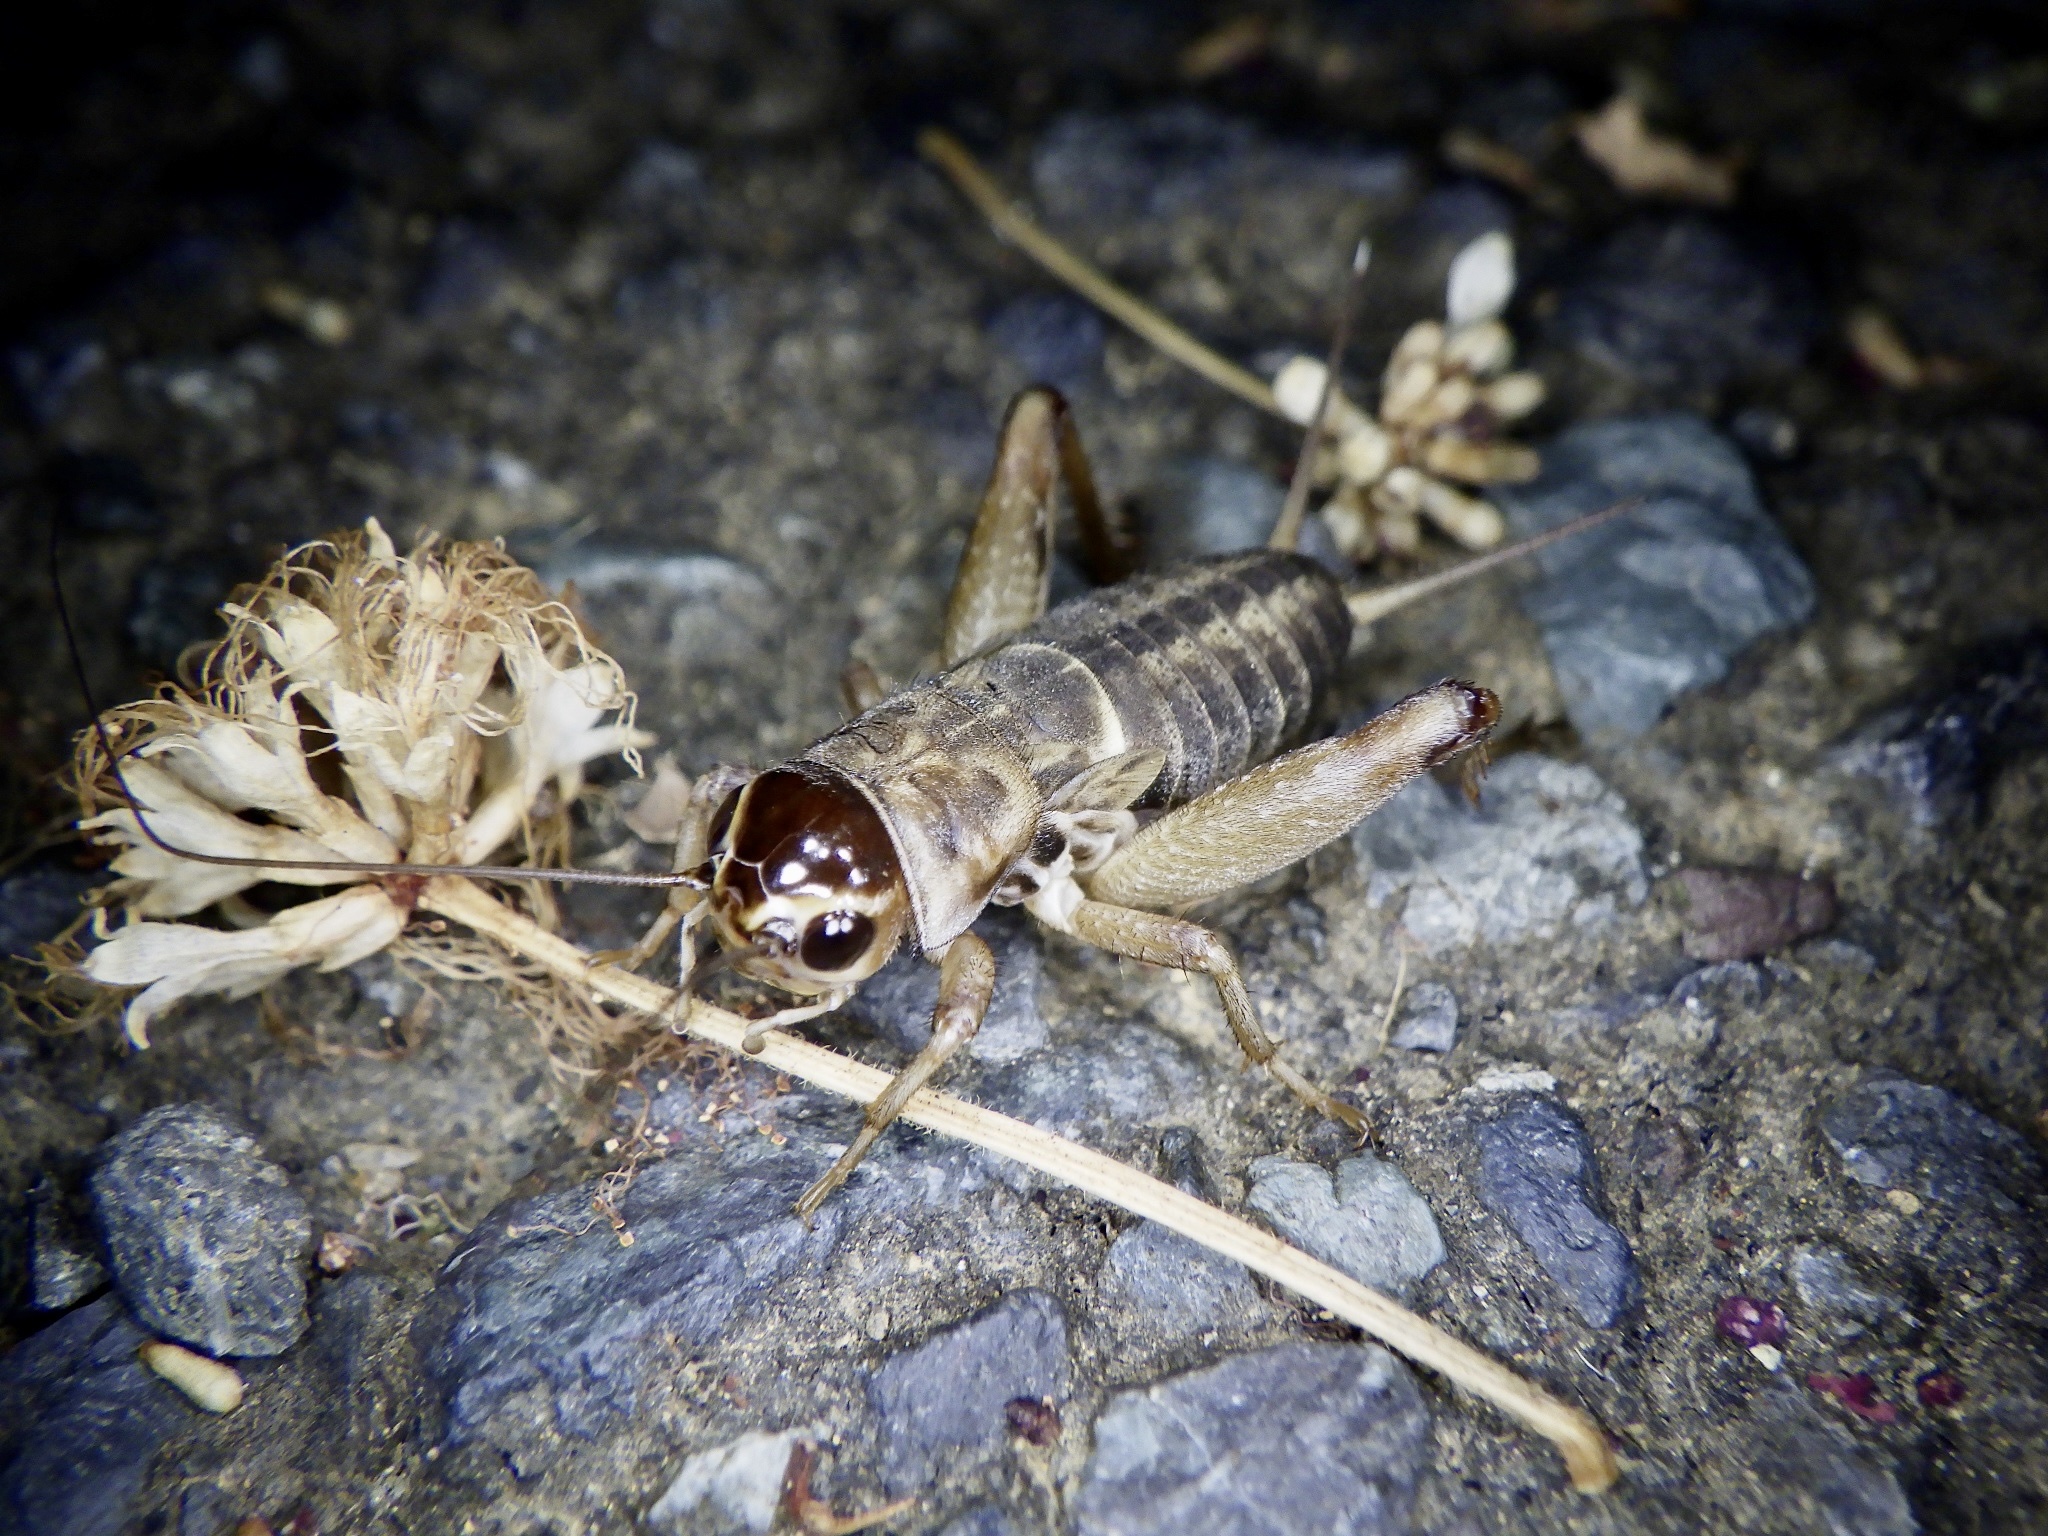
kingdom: Animalia
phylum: Arthropoda
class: Insecta
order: Orthoptera
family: Gryllidae
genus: Teleogryllus
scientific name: Teleogryllus emma
